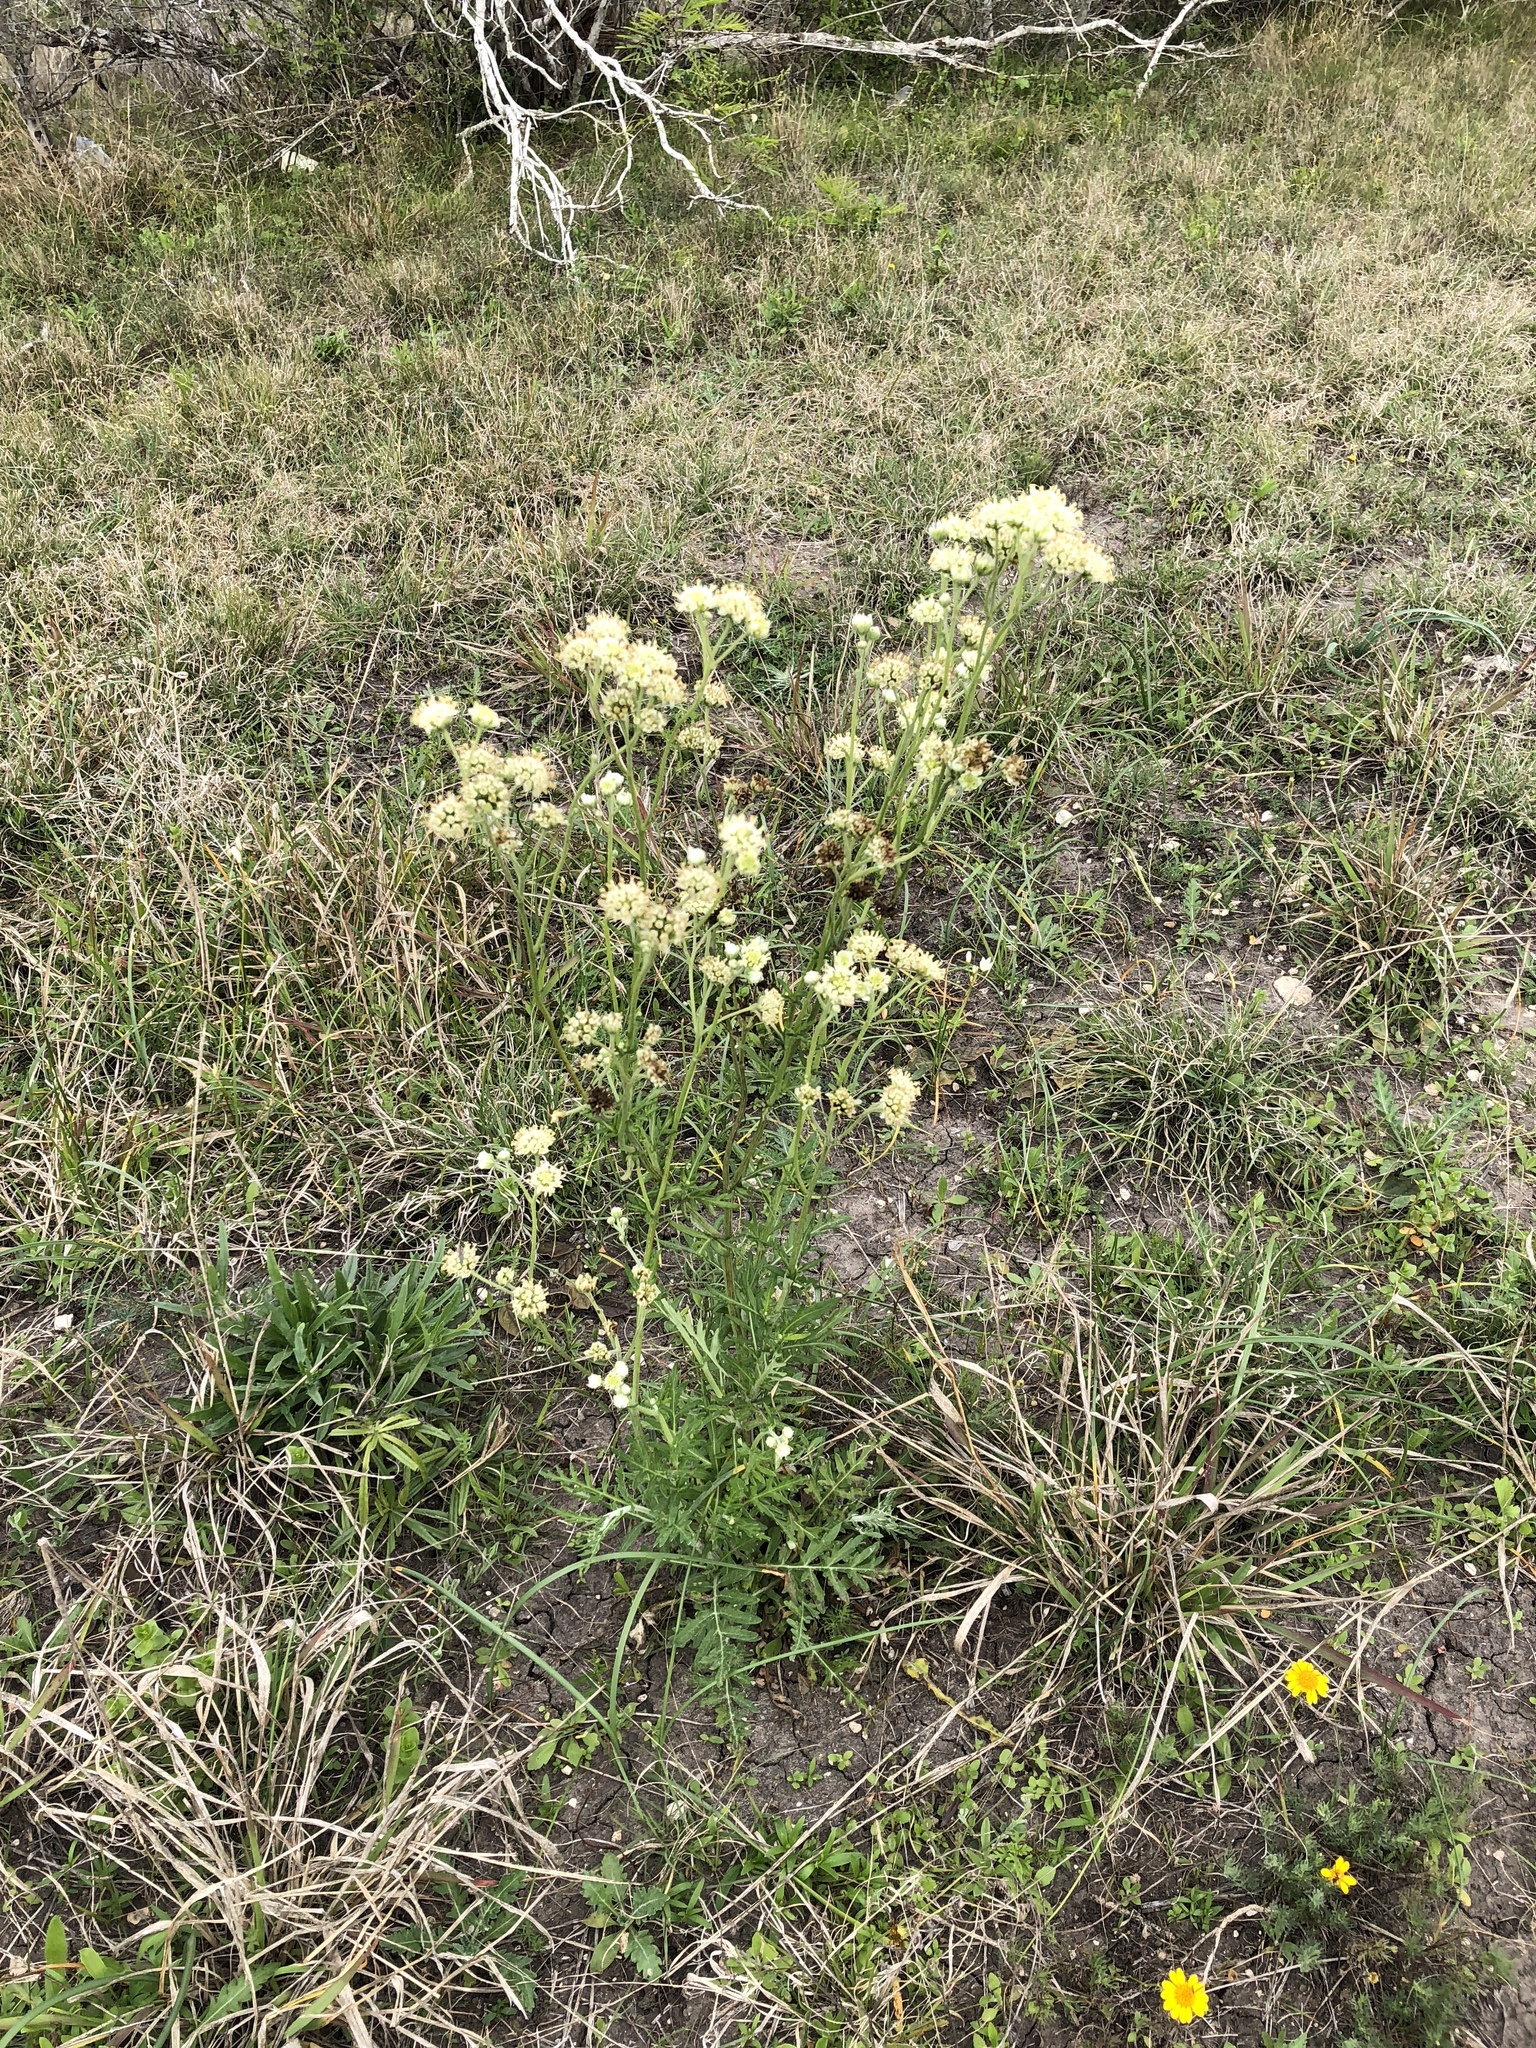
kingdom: Plantae
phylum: Tracheophyta
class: Magnoliopsida
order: Asterales
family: Asteraceae
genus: Hymenopappus
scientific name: Hymenopappus scabiosaeus
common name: Carolina woollywhite
